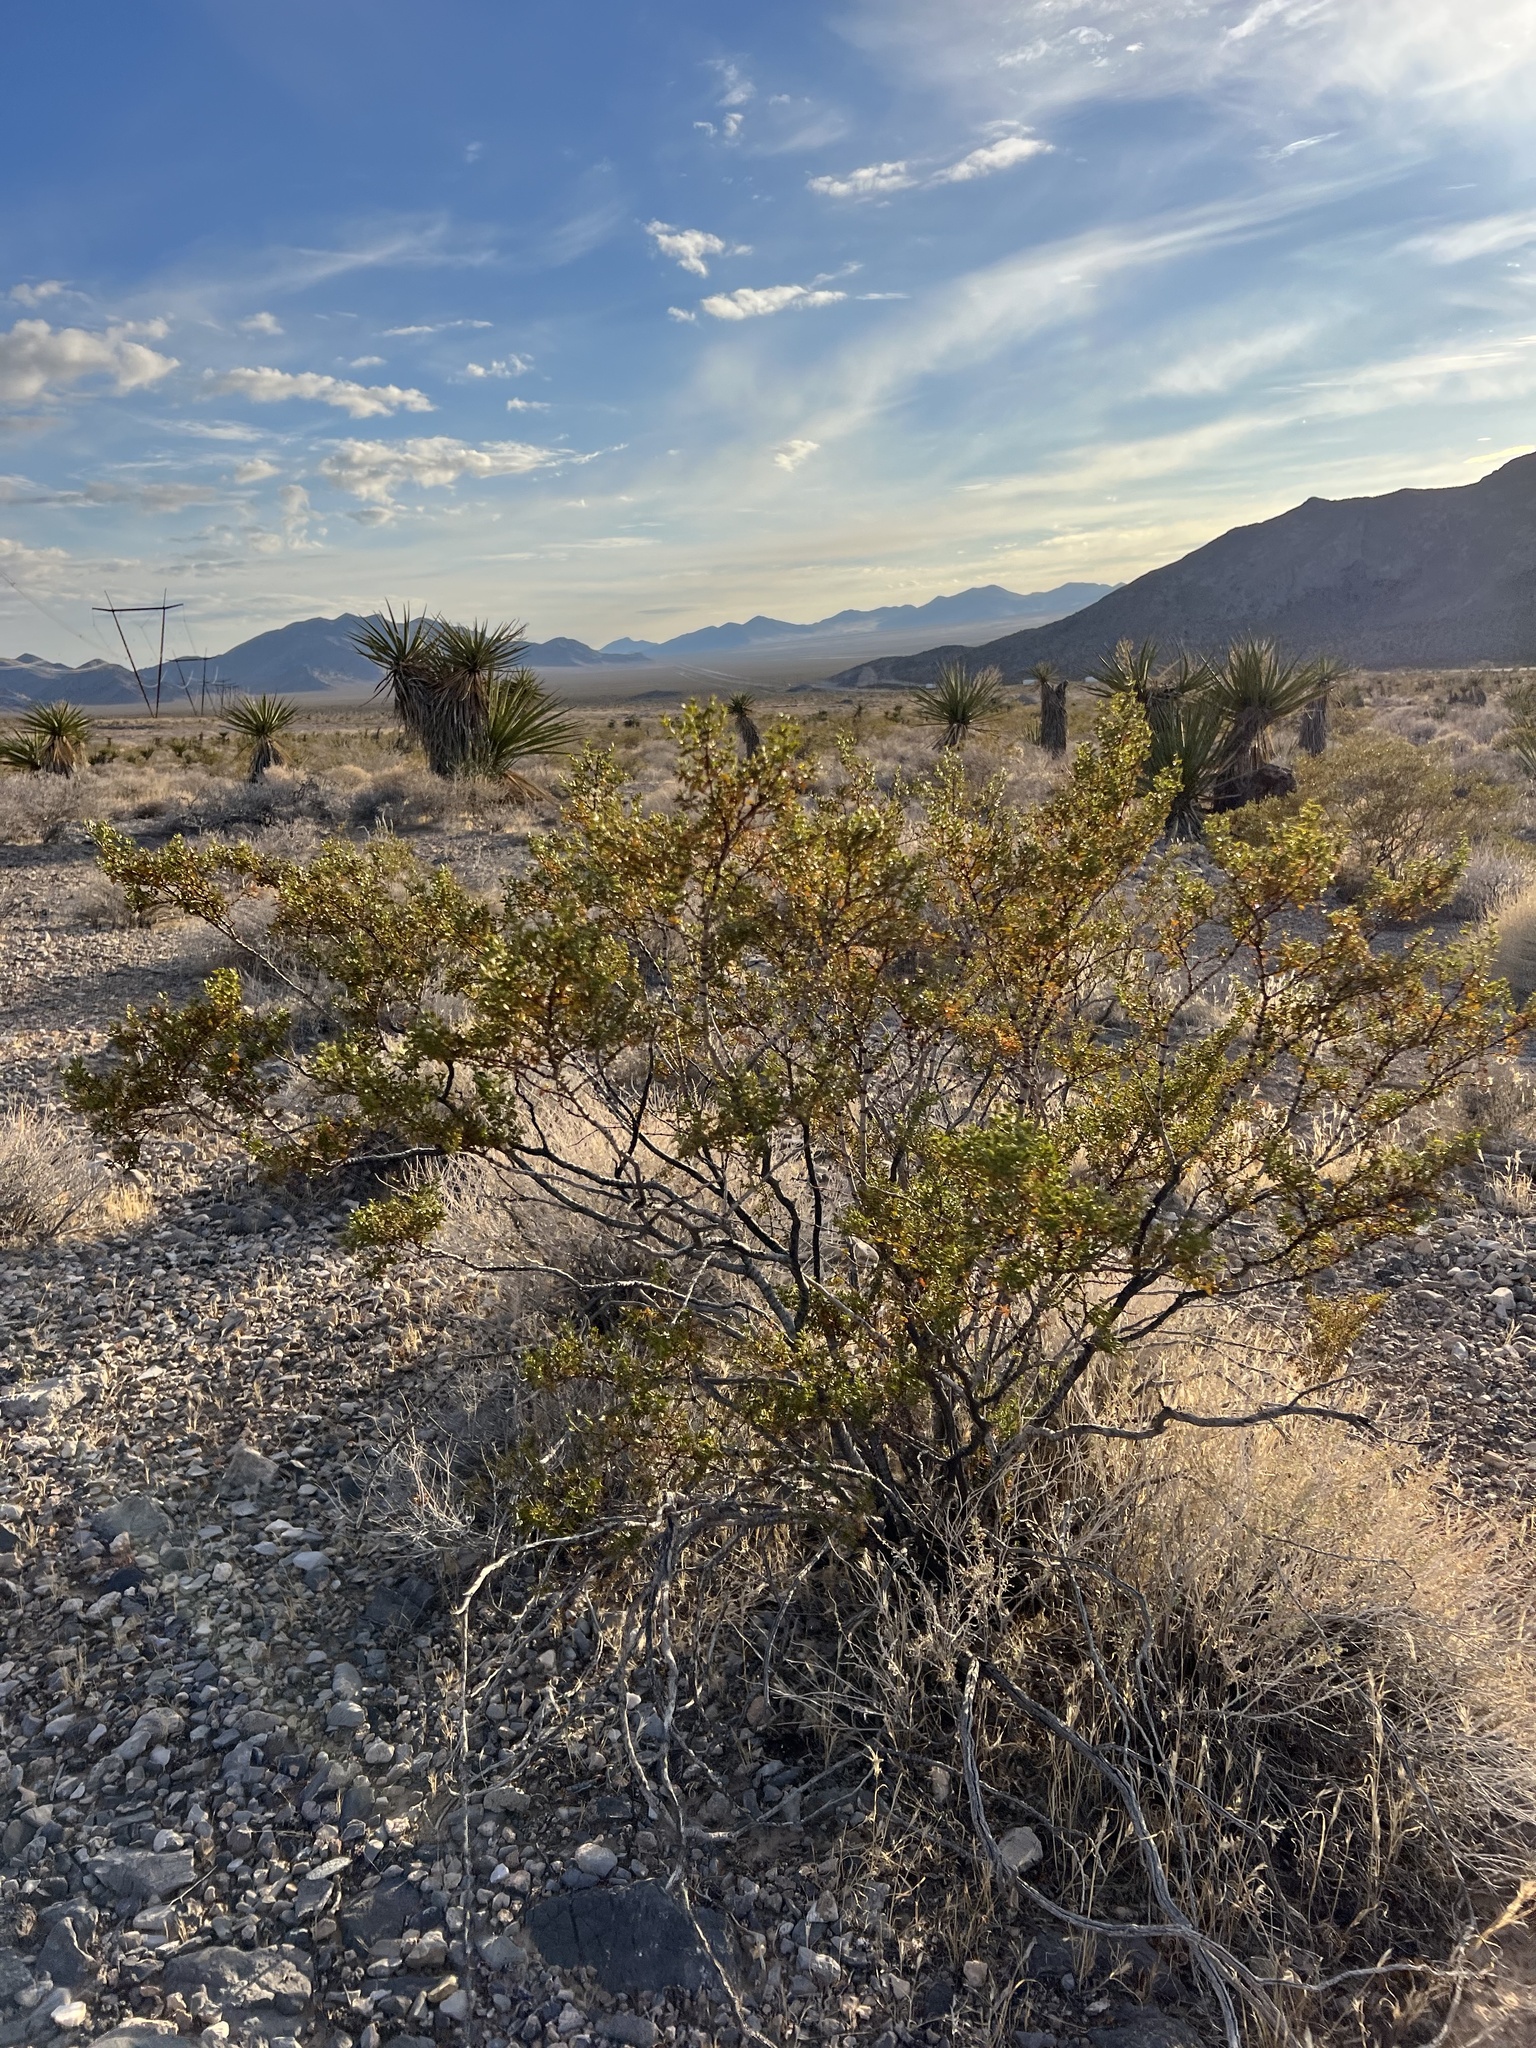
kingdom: Plantae
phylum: Tracheophyta
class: Magnoliopsida
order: Zygophyllales
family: Zygophyllaceae
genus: Larrea
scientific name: Larrea tridentata
